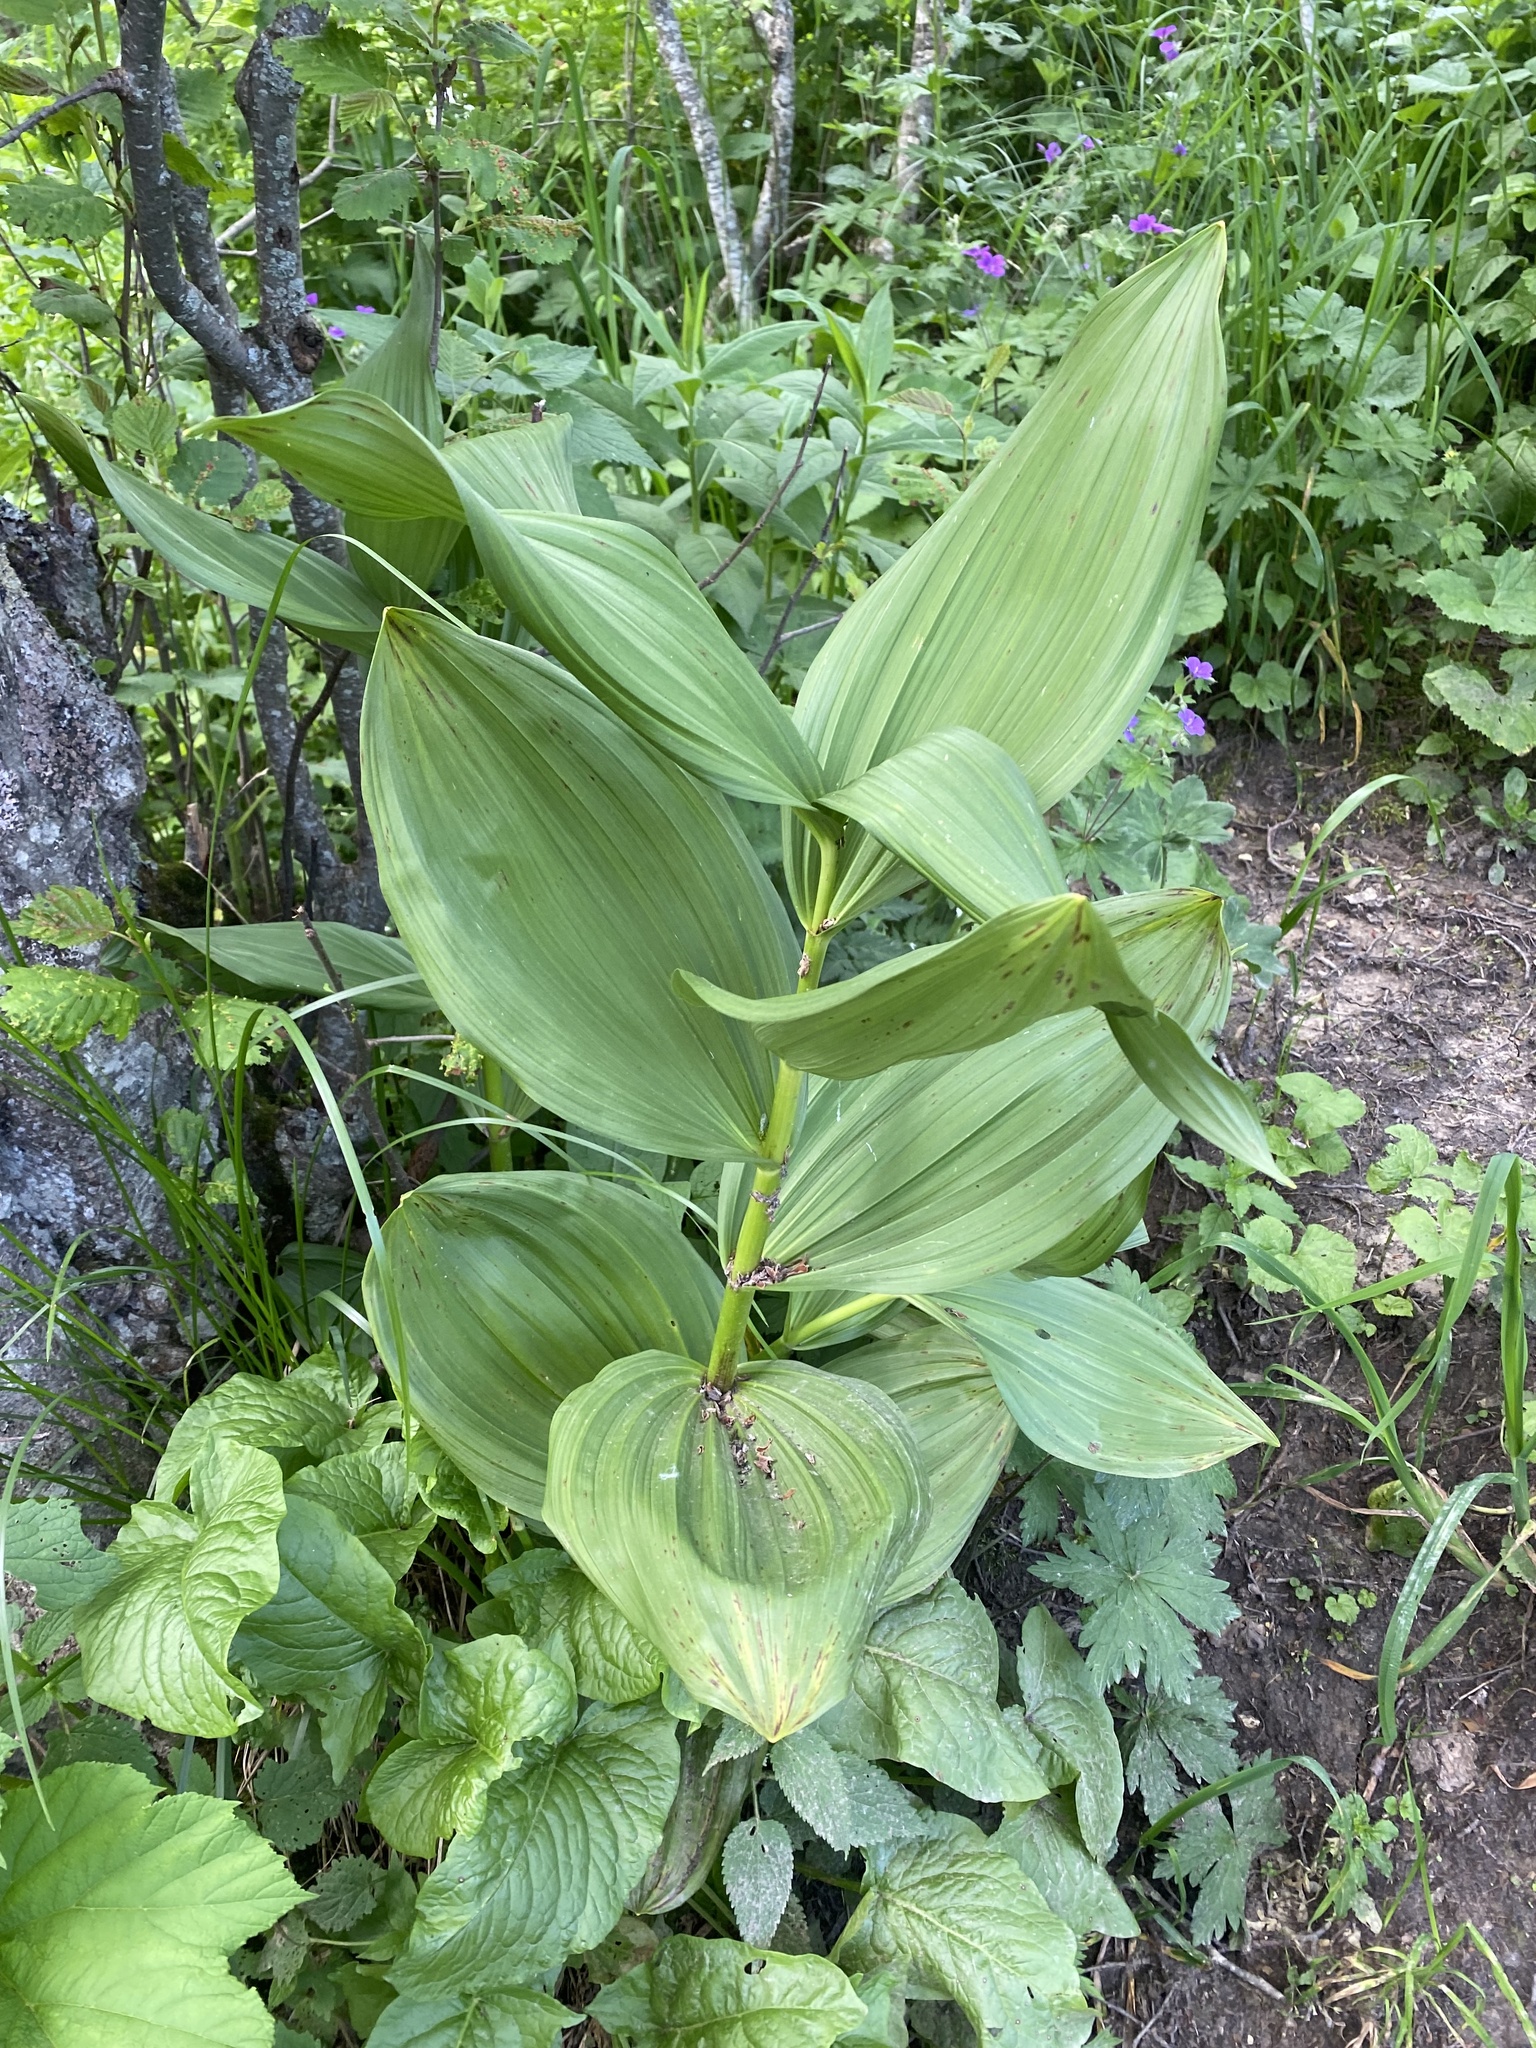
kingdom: Plantae
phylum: Tracheophyta
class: Liliopsida
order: Liliales
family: Melanthiaceae
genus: Veratrum
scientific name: Veratrum lobelianum
